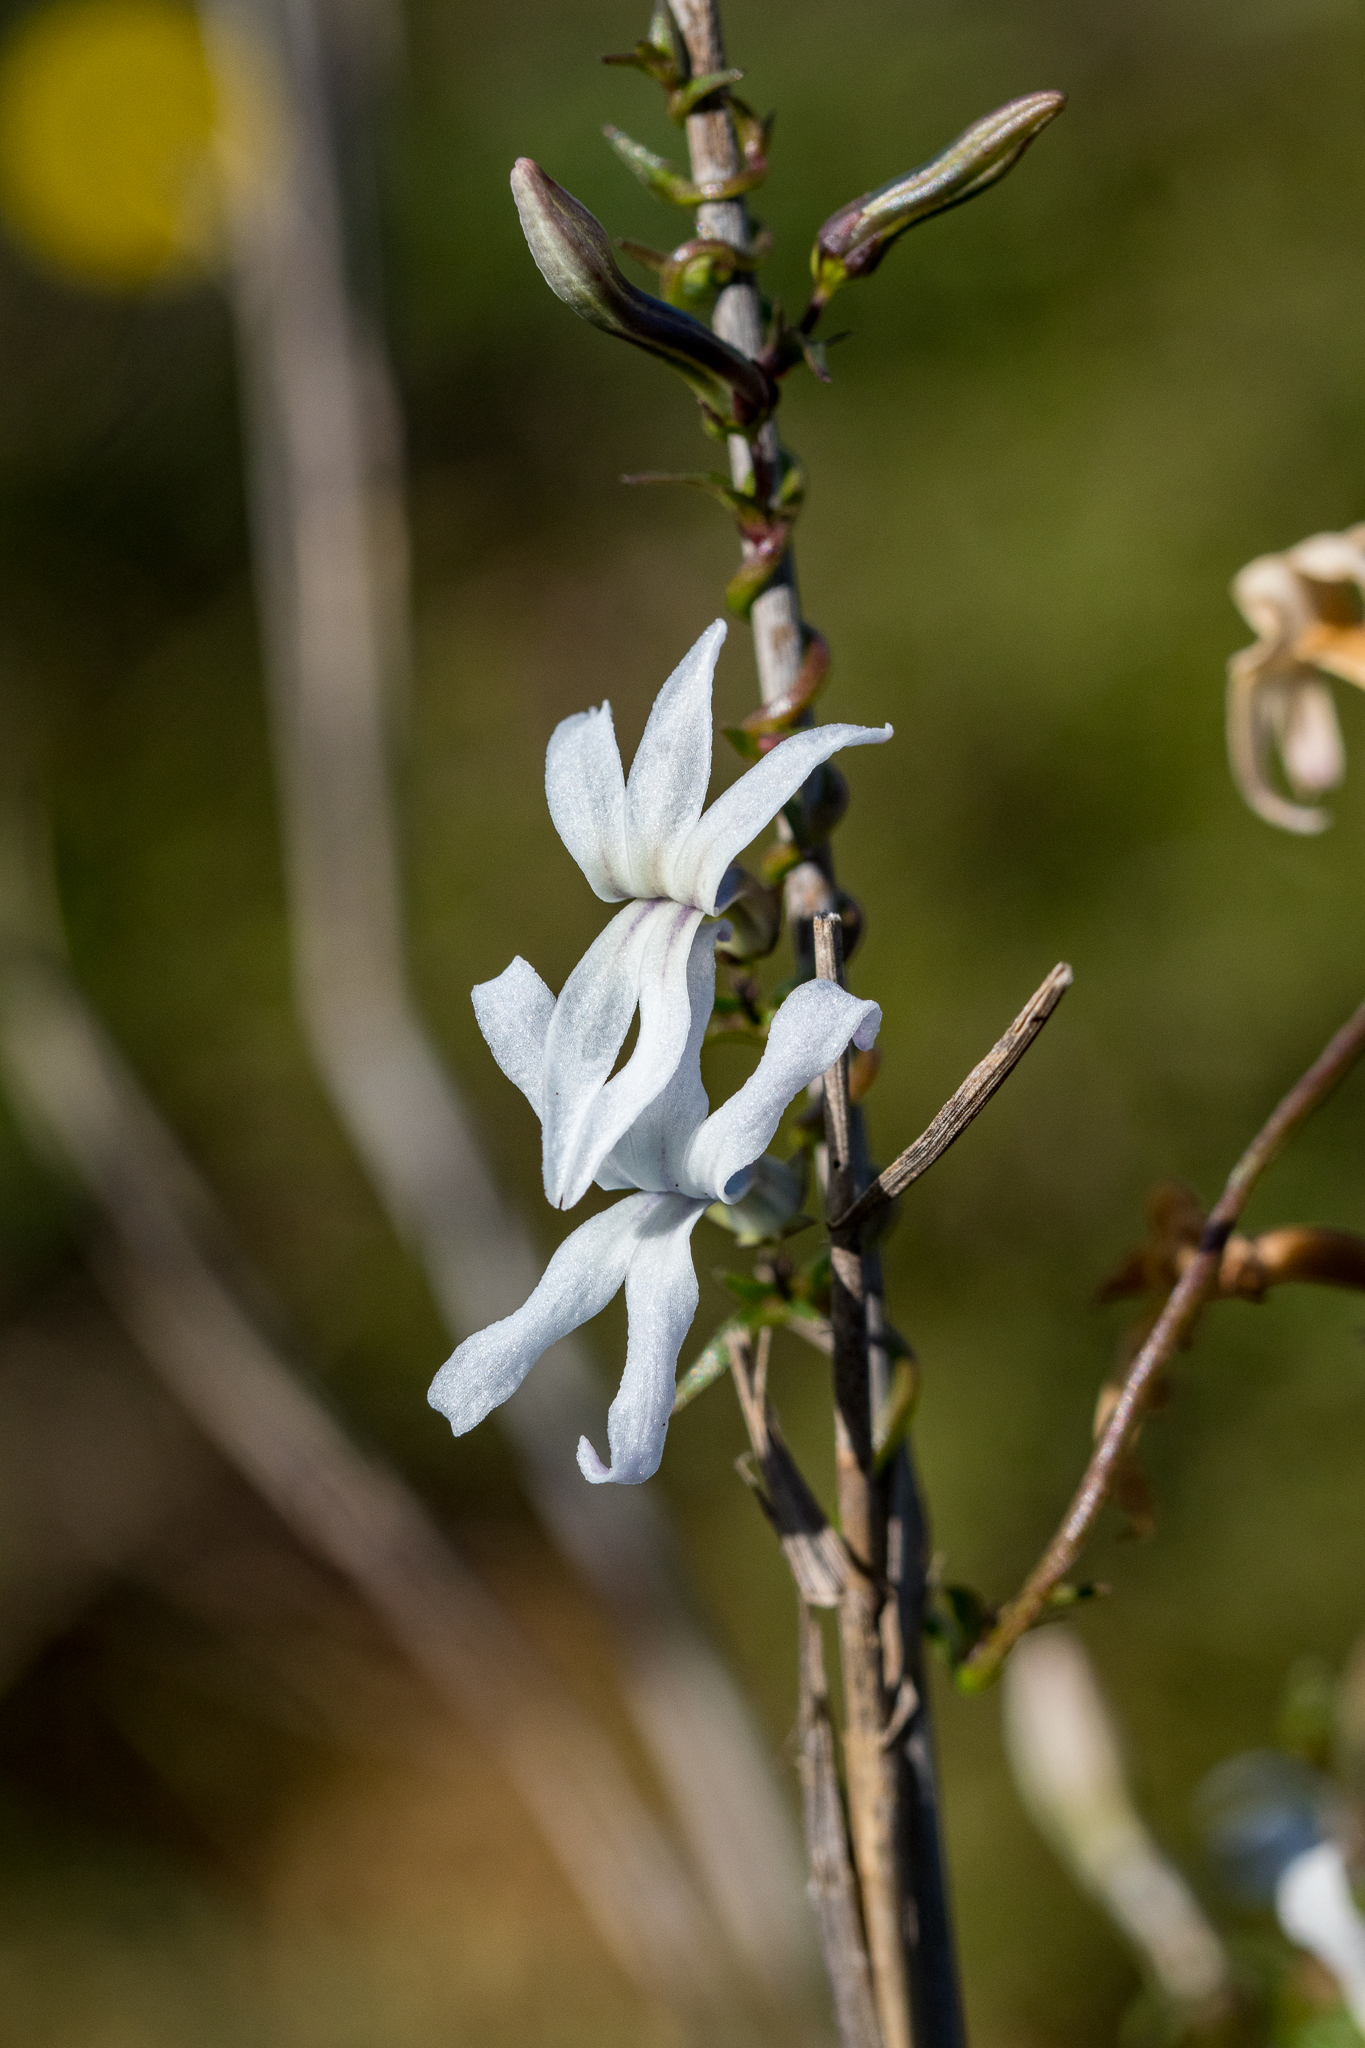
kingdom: Plantae
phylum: Tracheophyta
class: Magnoliopsida
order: Asterales
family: Campanulaceae
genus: Cyphia
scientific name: Cyphia volubilis
